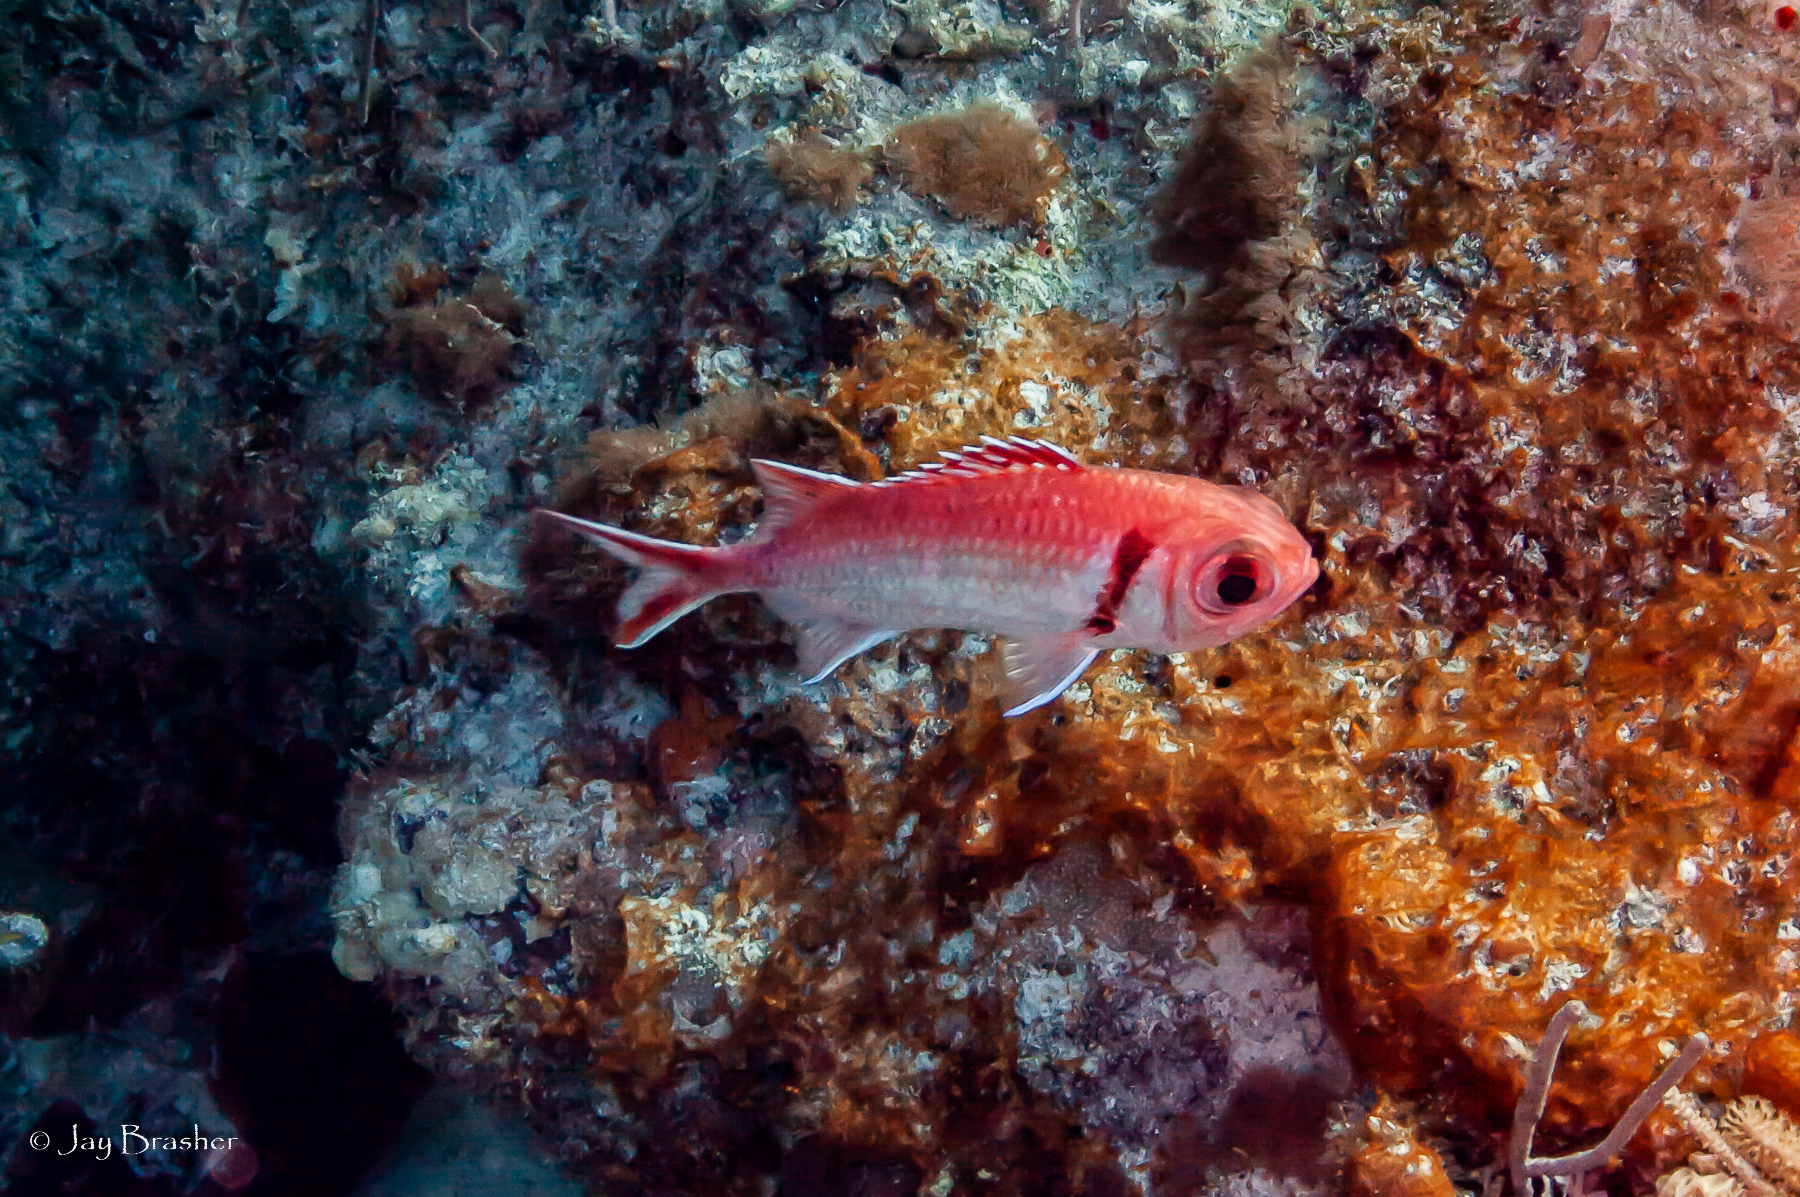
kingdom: Animalia
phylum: Chordata
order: Beryciformes
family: Holocentridae
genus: Myripristis
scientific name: Myripristis jacobus
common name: Blackbar soldierfish
